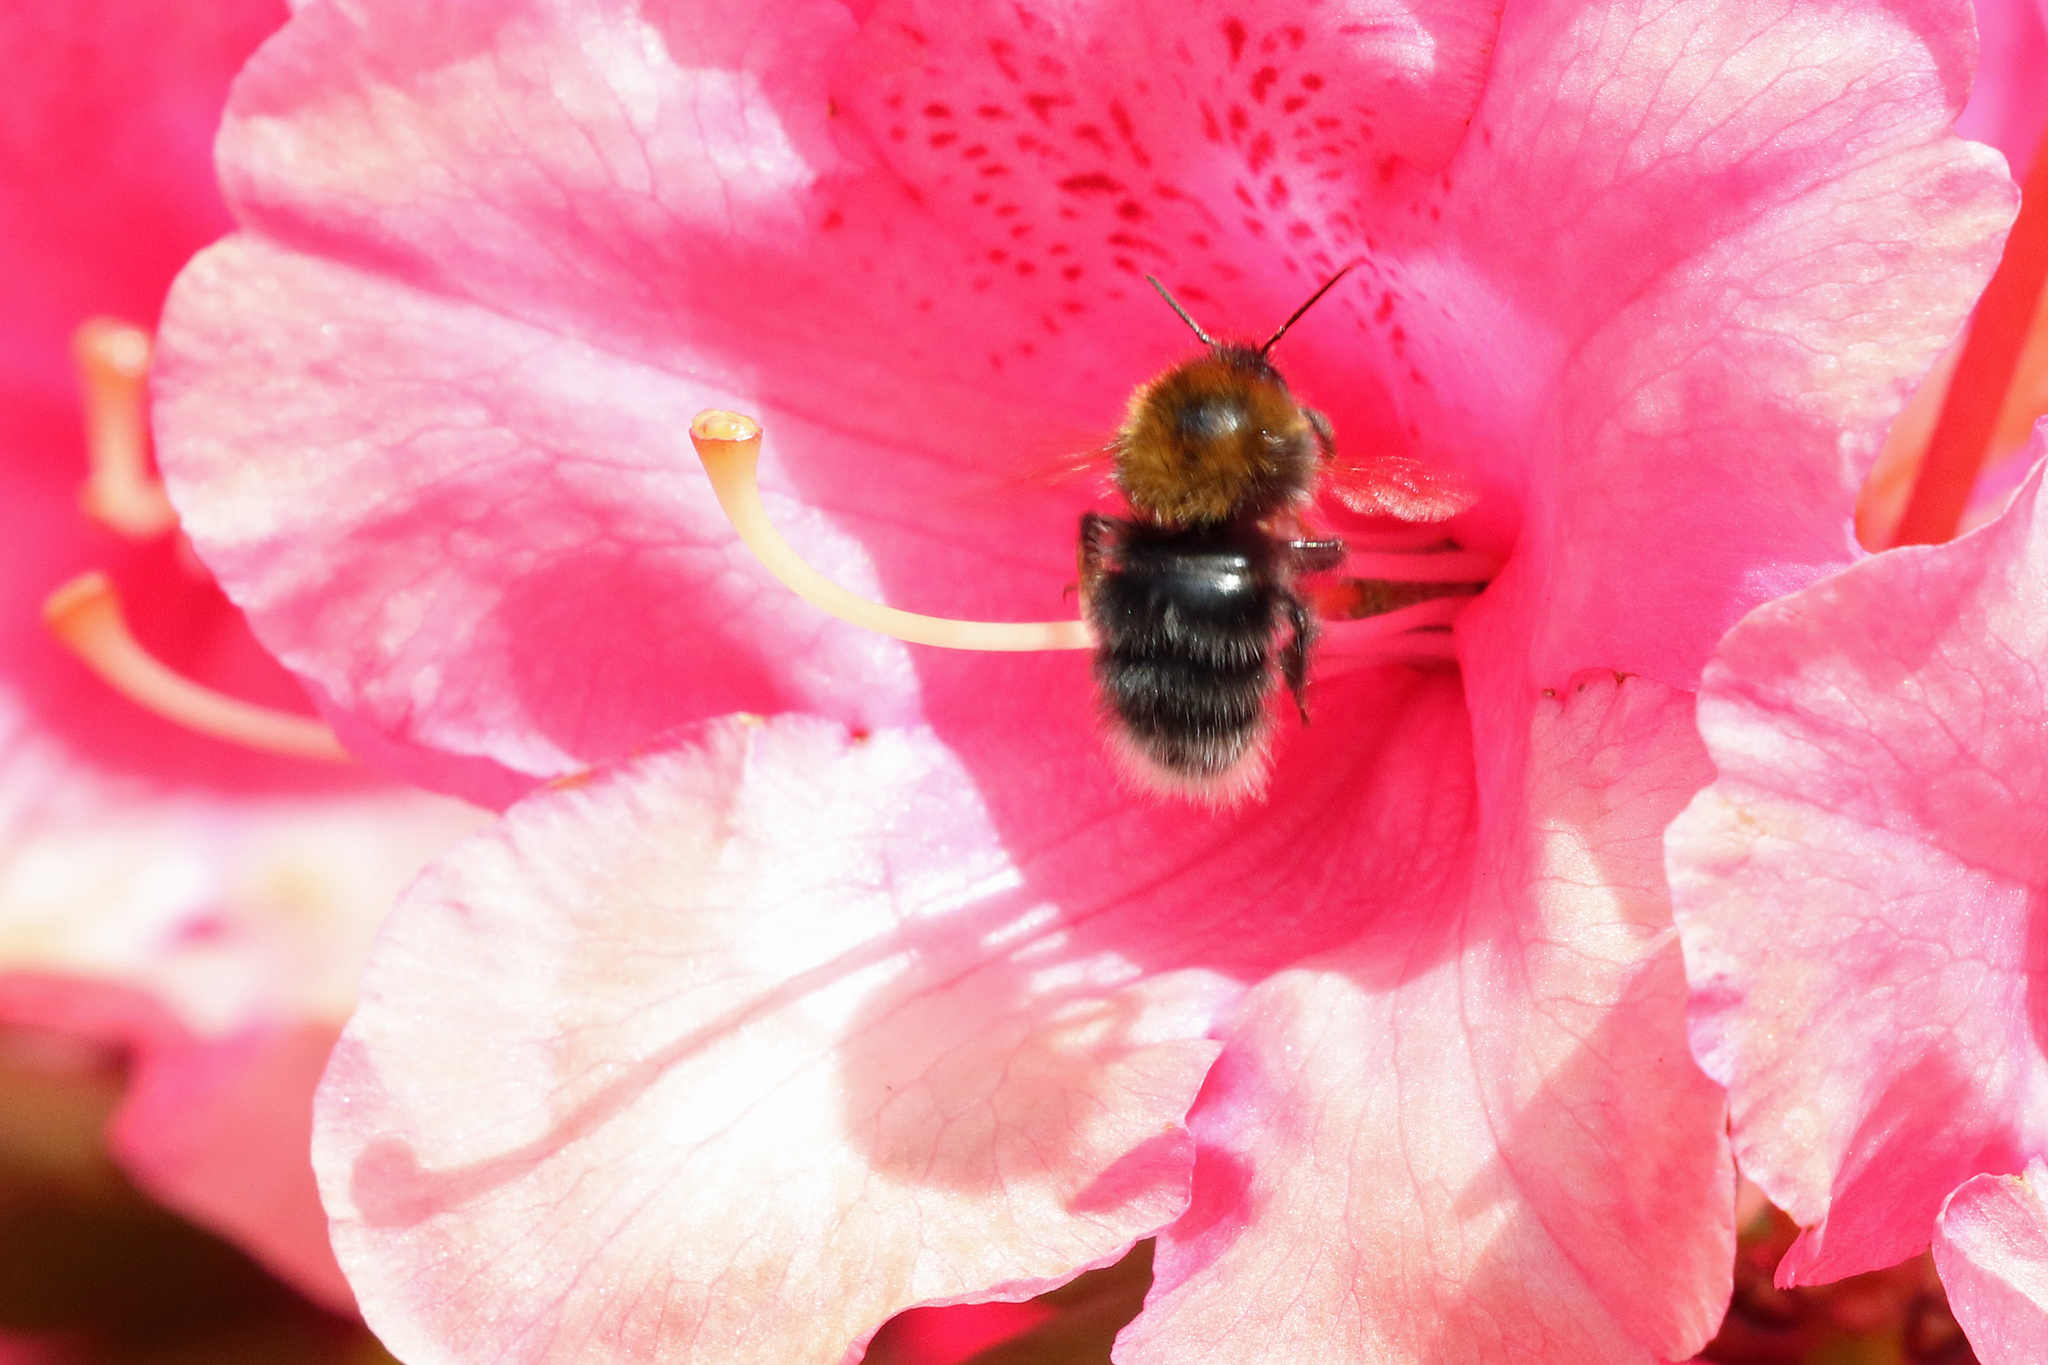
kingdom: Animalia
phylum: Arthropoda
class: Insecta
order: Hymenoptera
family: Apidae
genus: Bombus
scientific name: Bombus hypnorum
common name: New garden bumblebee
